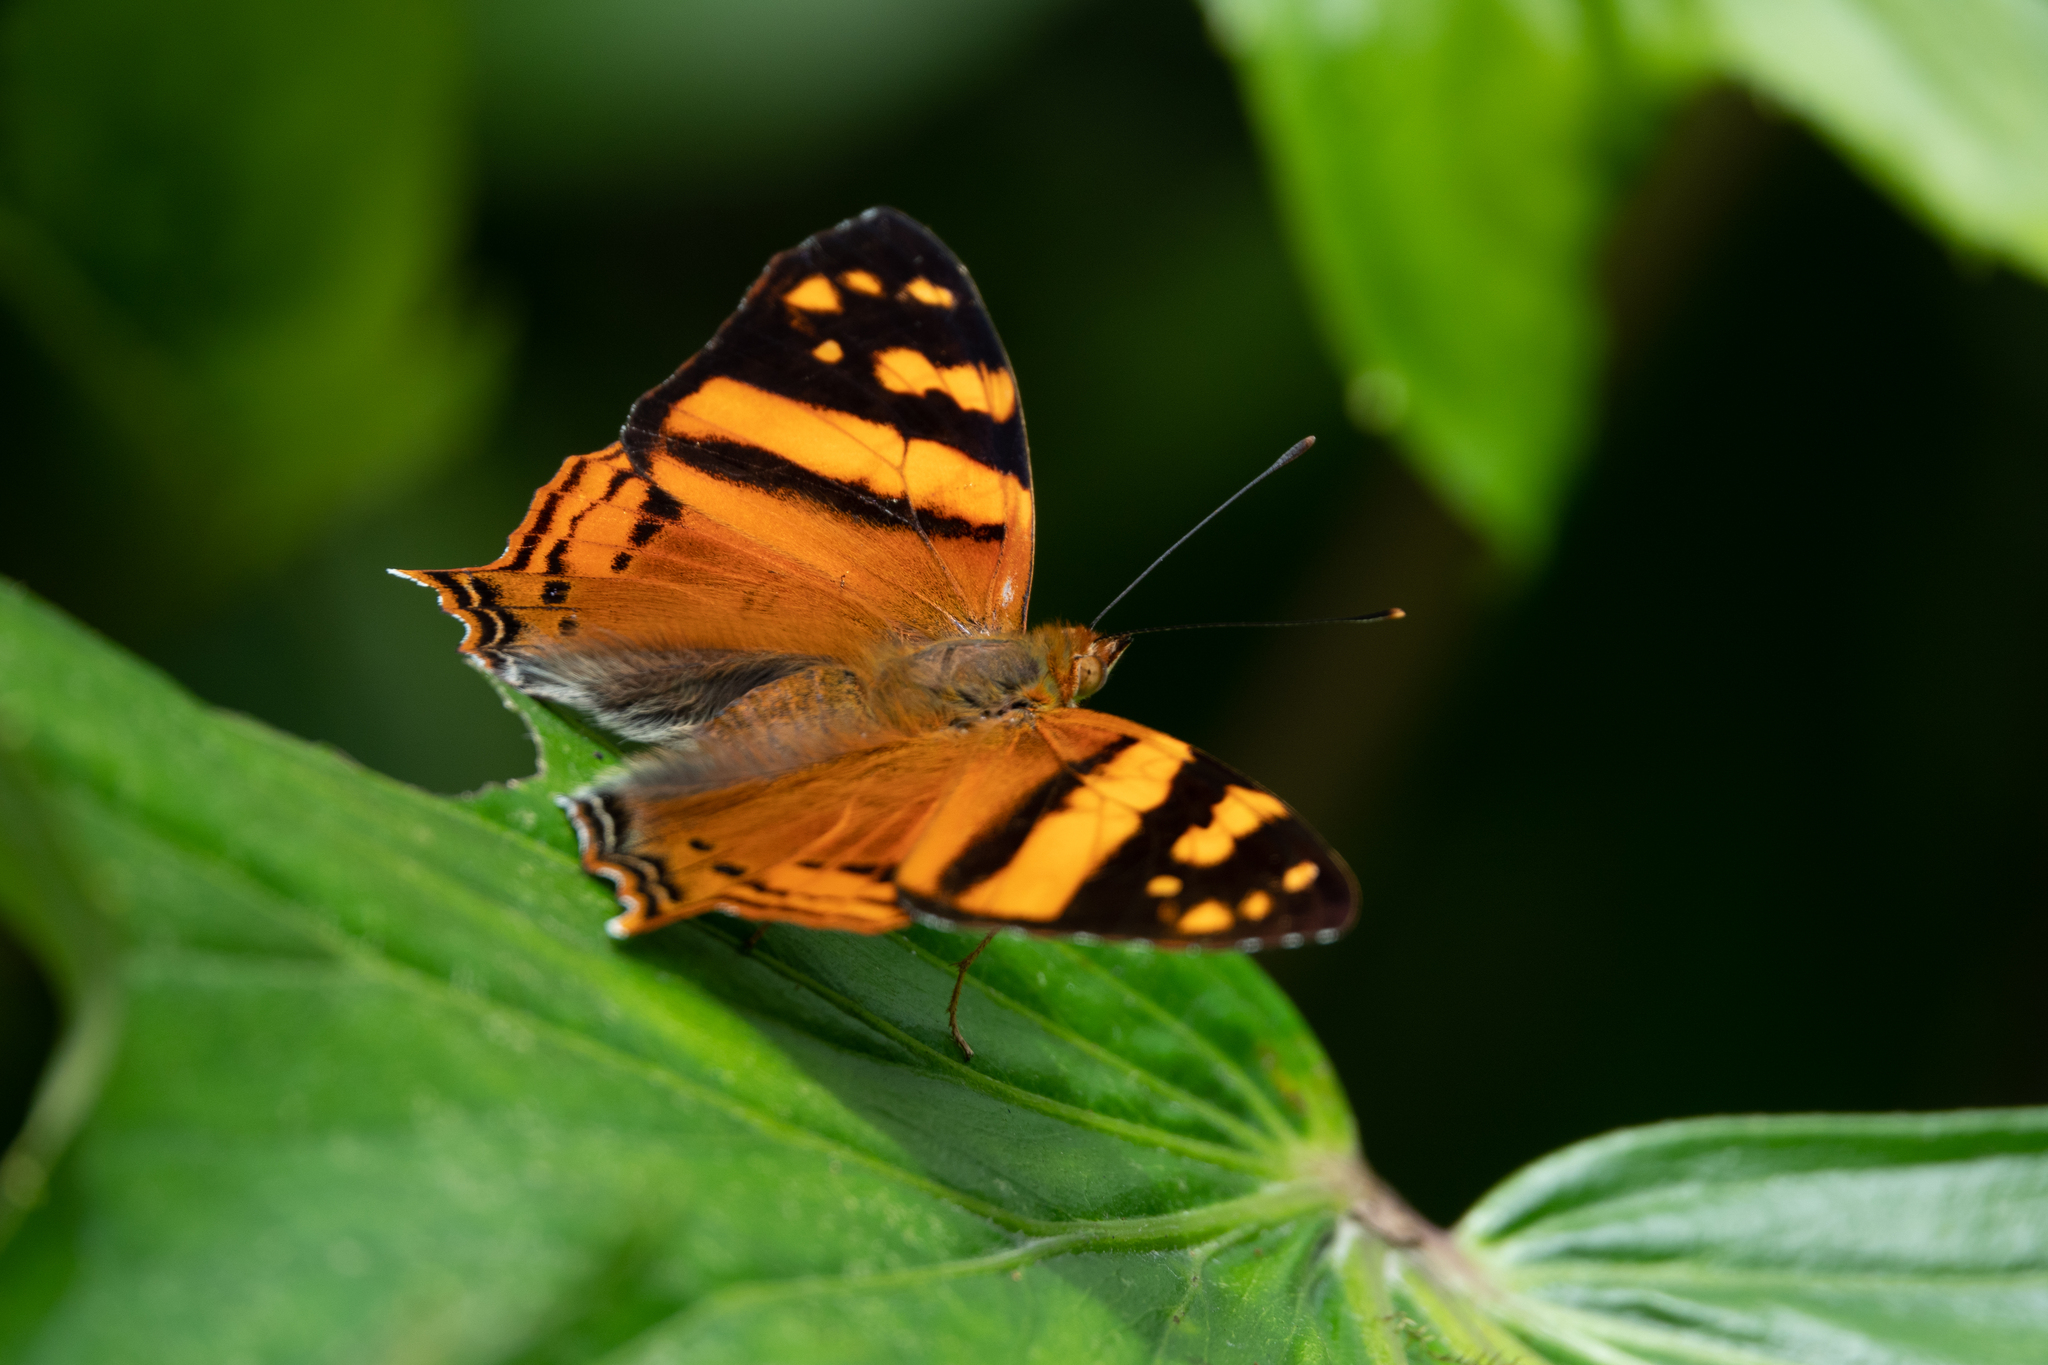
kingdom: Animalia
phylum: Arthropoda
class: Insecta
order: Lepidoptera
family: Nymphalidae
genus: Hypanartia
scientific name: Hypanartia lethe
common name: Orange mapwing
